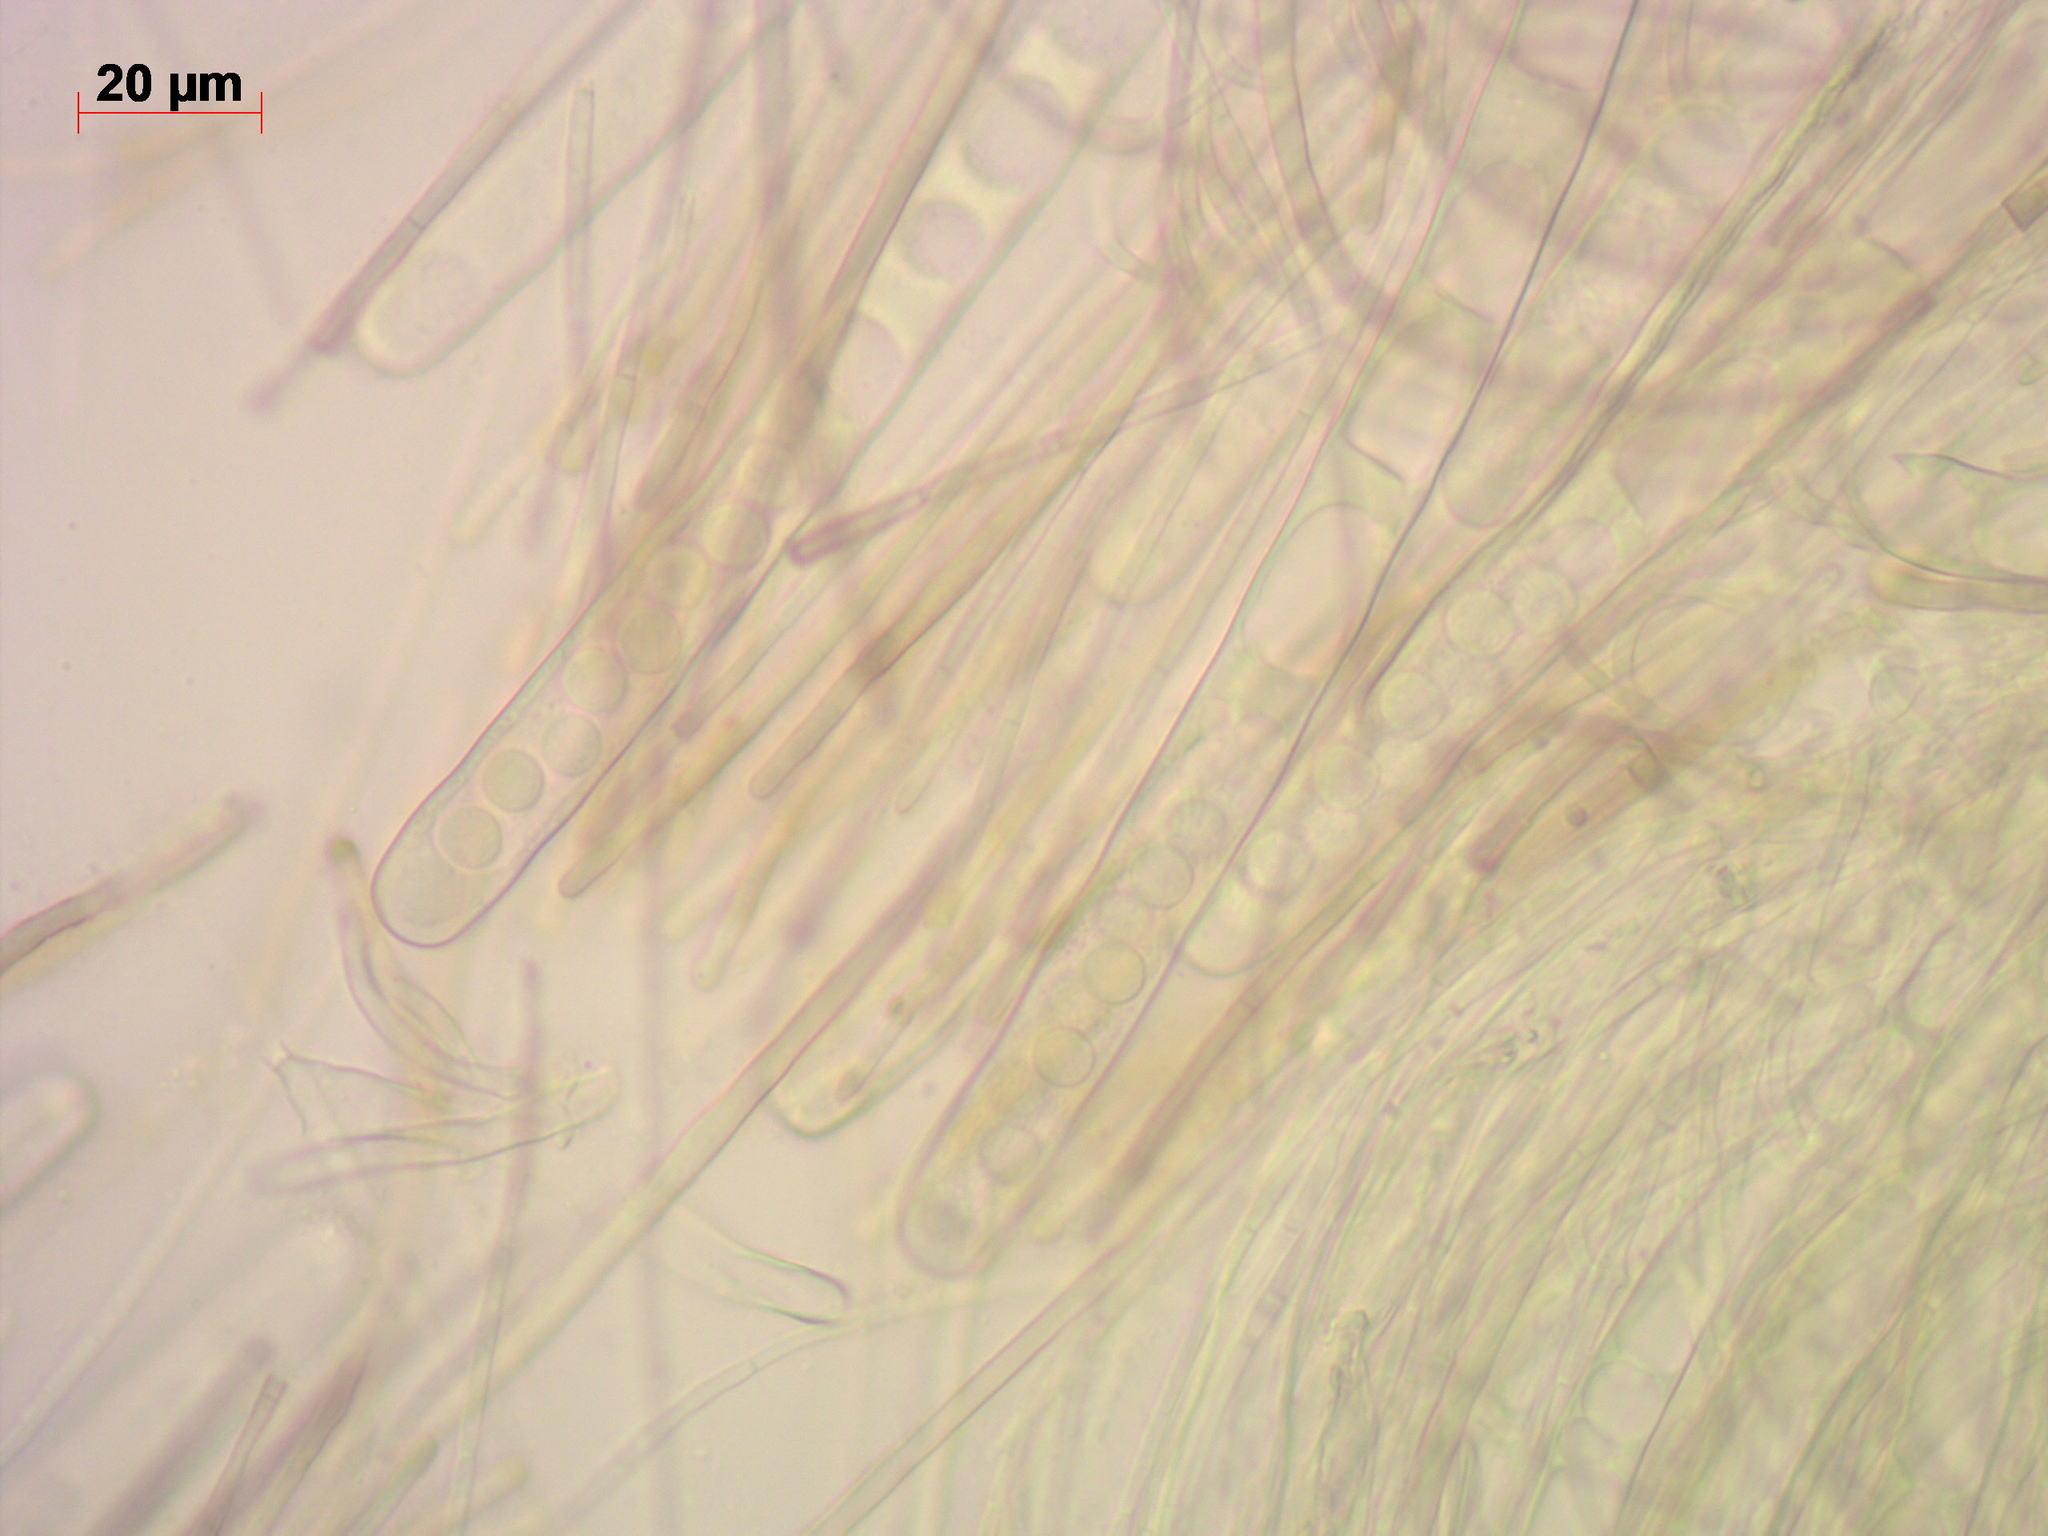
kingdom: Fungi
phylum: Ascomycota
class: Pezizomycetes
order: Pezizales
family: Sarcosomataceae
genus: Pseudoplectania
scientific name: Pseudoplectania nigrella
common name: Ebony cup
